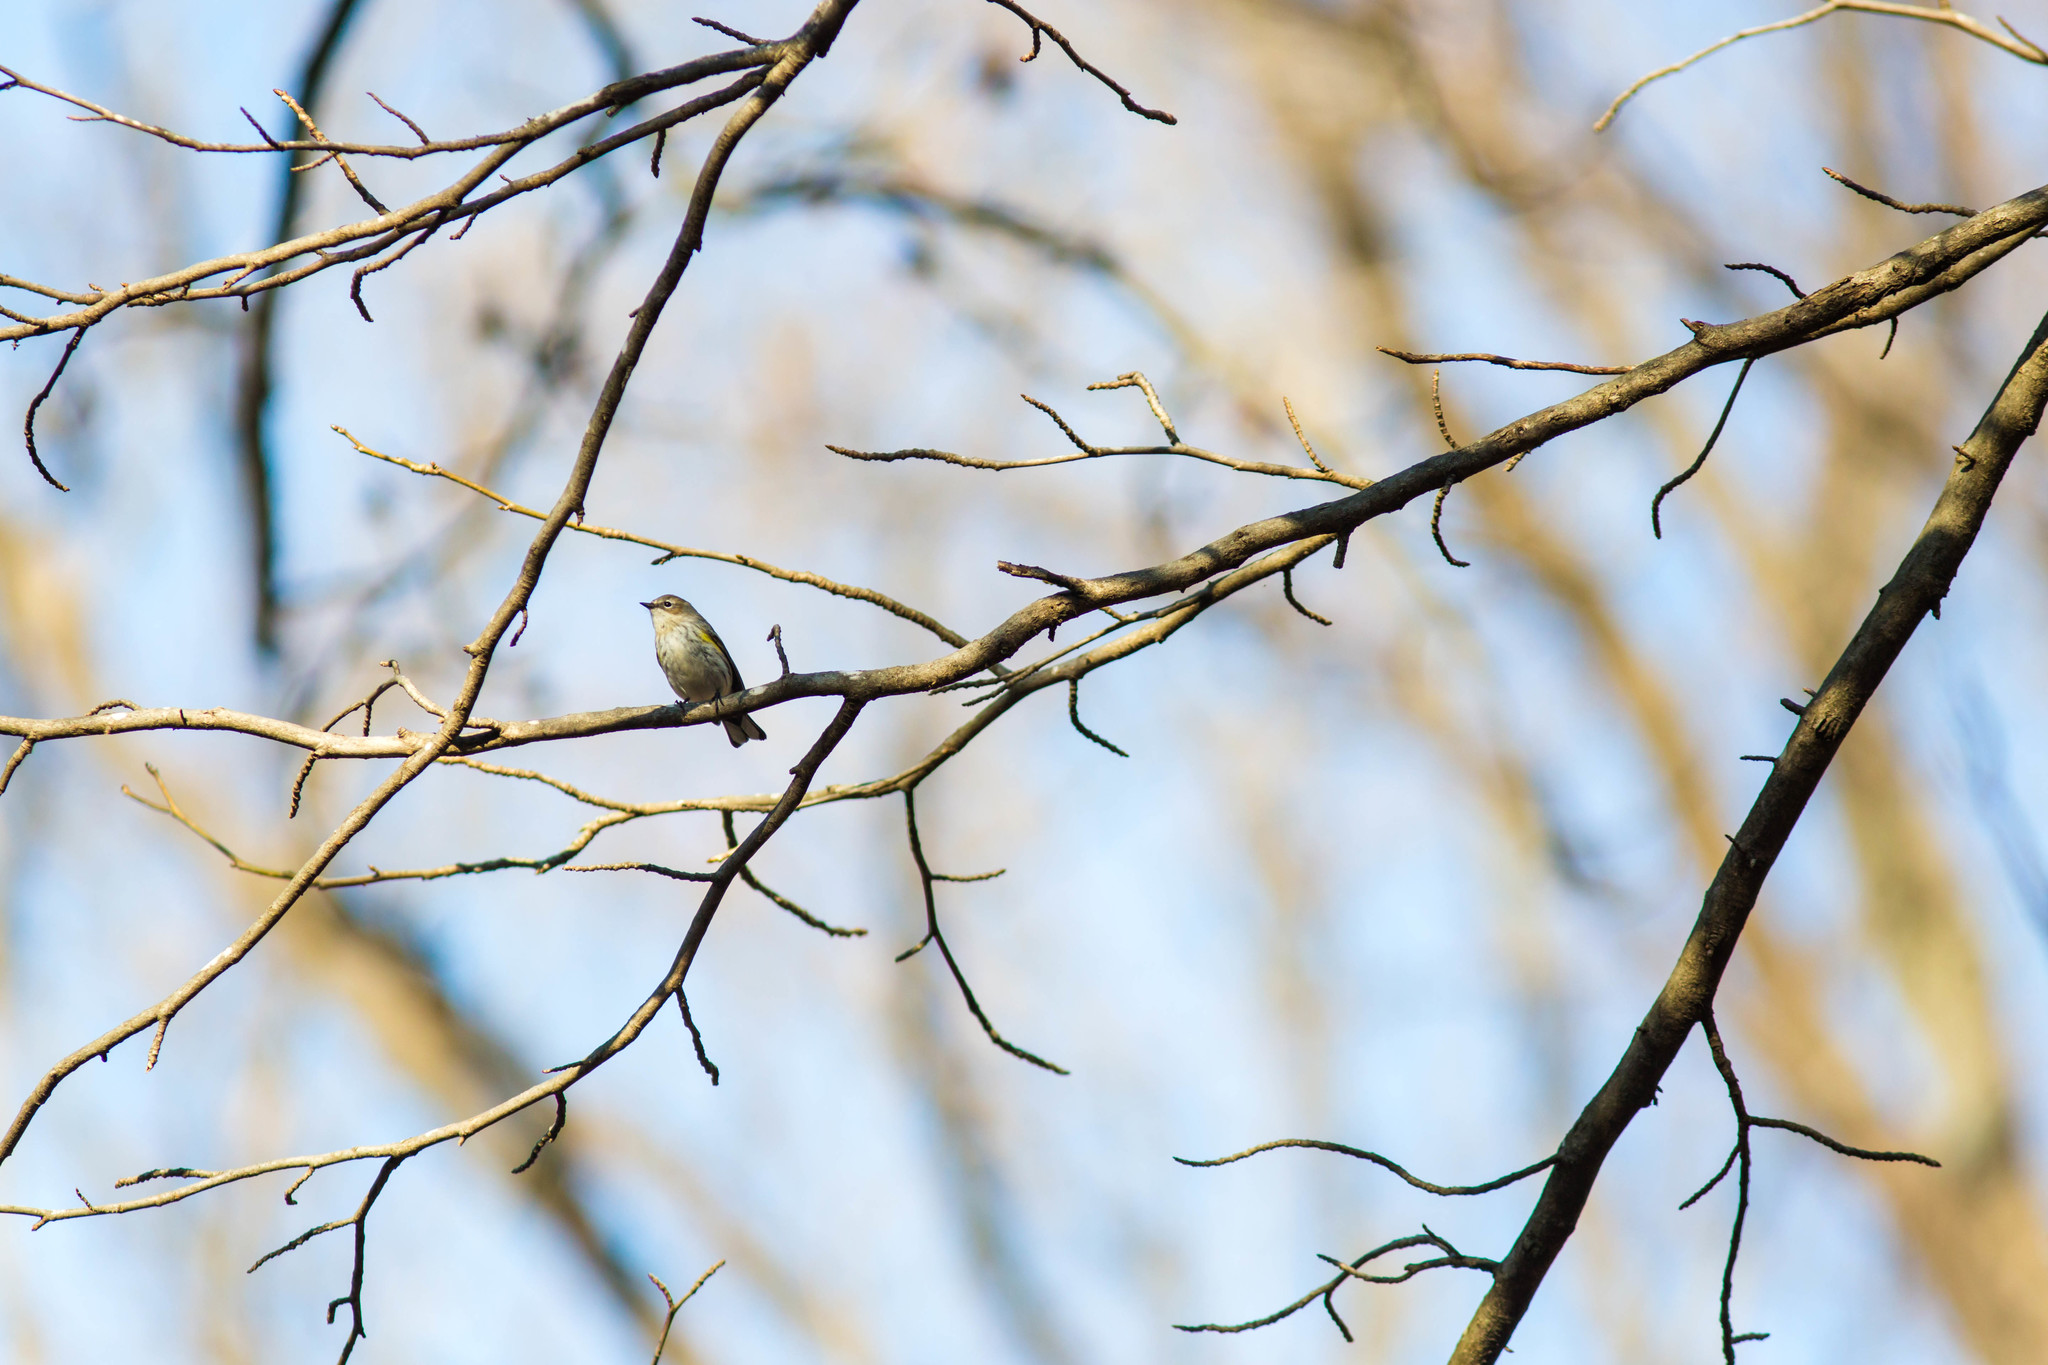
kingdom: Animalia
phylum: Chordata
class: Aves
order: Passeriformes
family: Parulidae
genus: Setophaga
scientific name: Setophaga coronata
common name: Myrtle warbler
